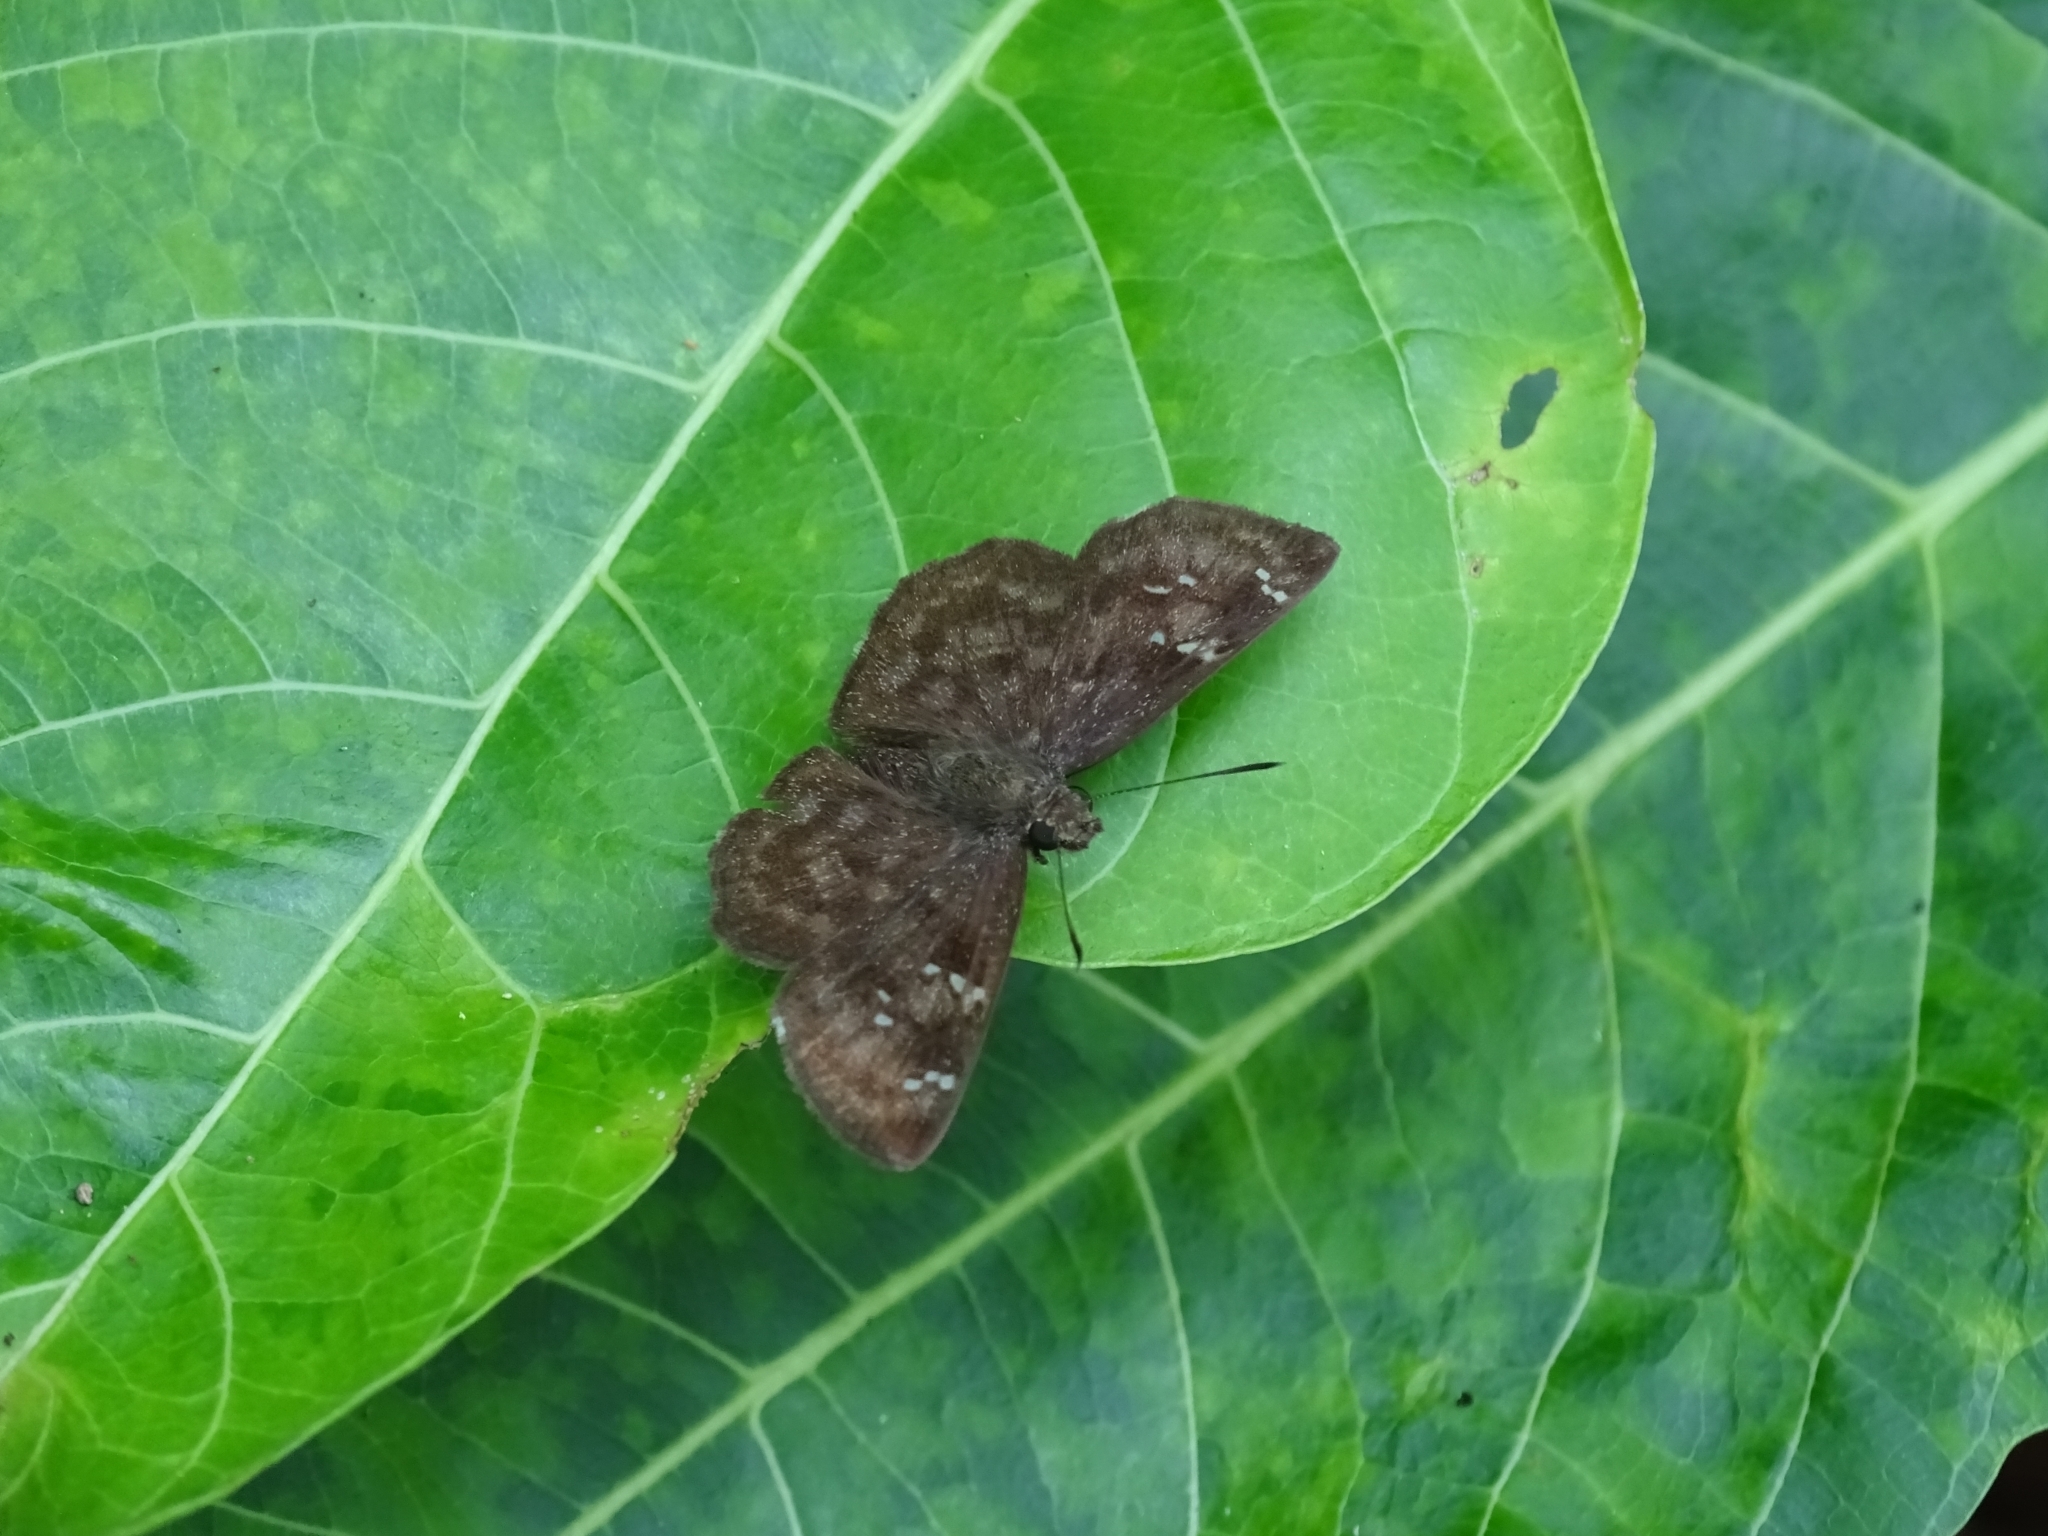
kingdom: Animalia
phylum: Arthropoda
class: Insecta
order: Lepidoptera
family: Hesperiidae
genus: Sarangesa
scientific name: Sarangesa dasahara
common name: Common small flat
